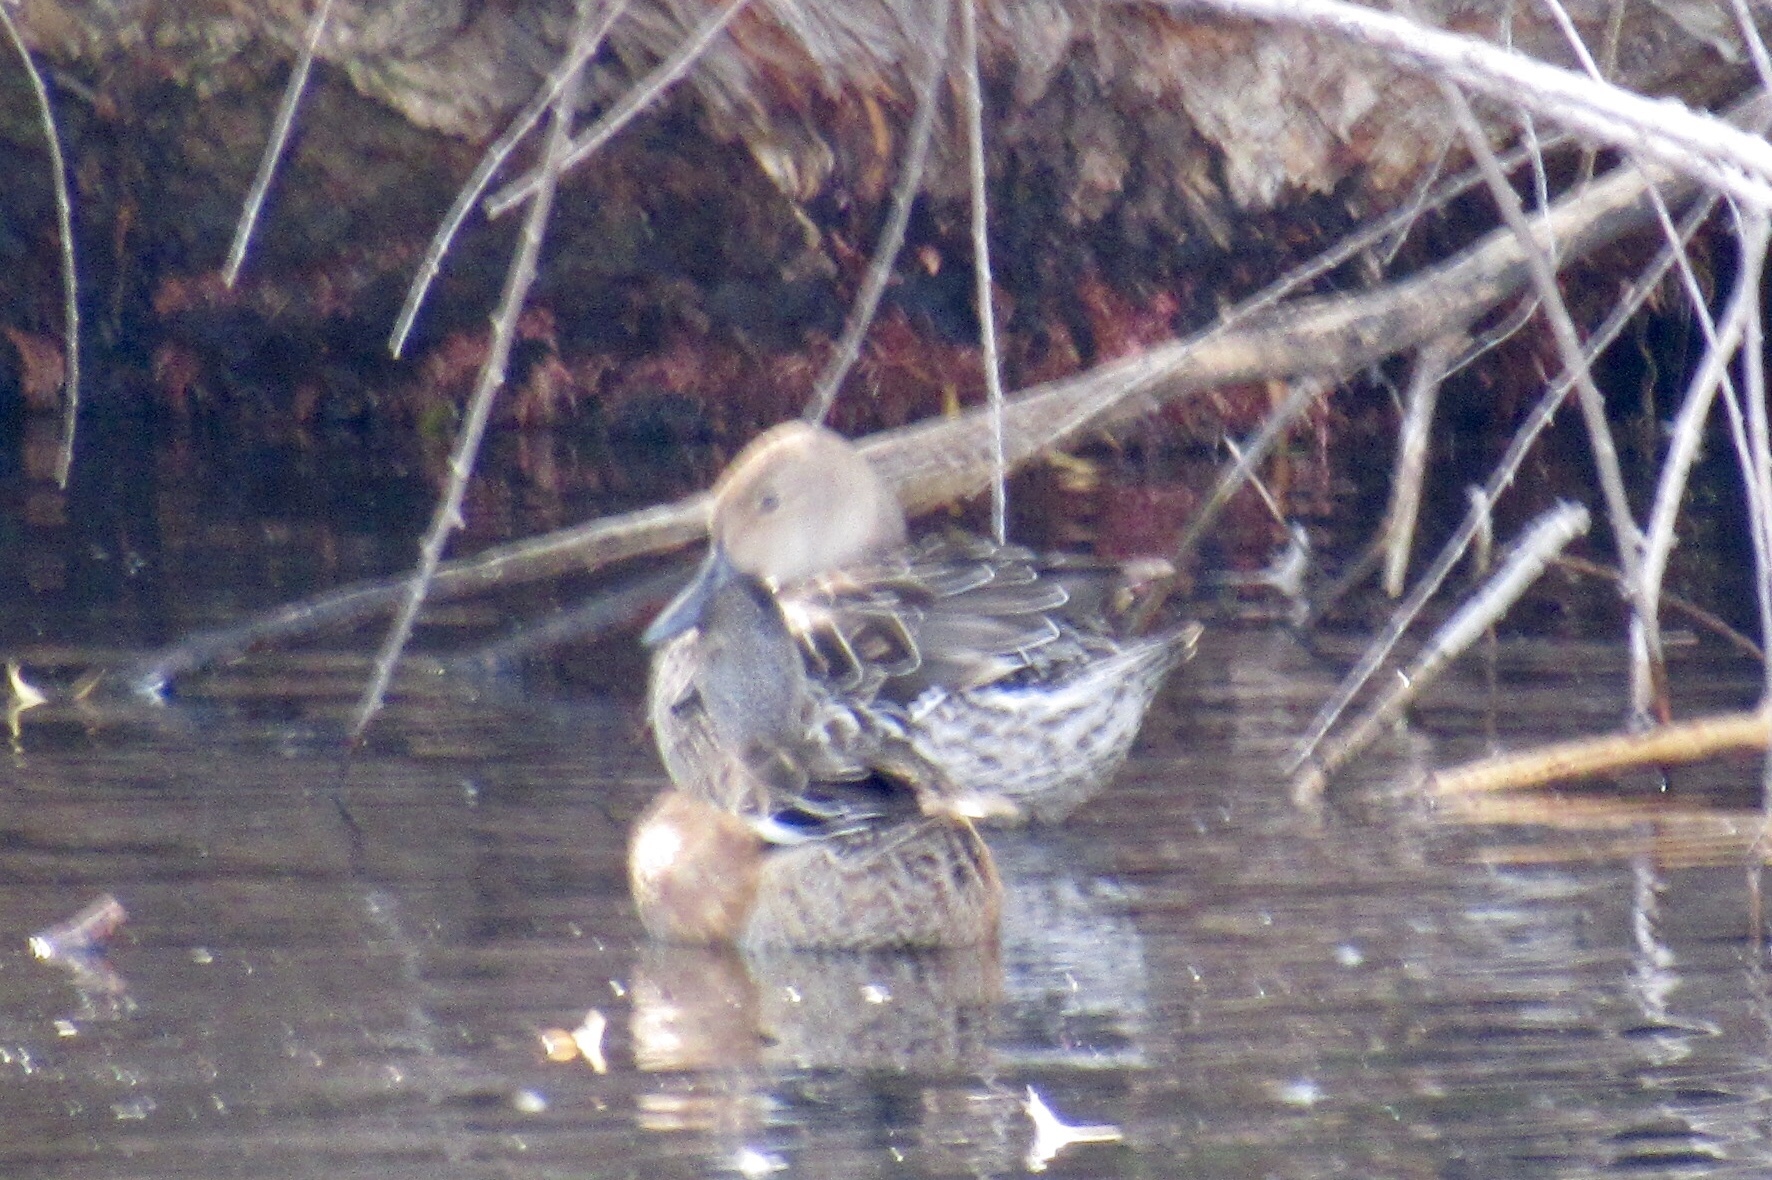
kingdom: Animalia
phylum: Chordata
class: Aves
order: Anseriformes
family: Anatidae
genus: Anas
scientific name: Anas acuta
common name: Northern pintail
